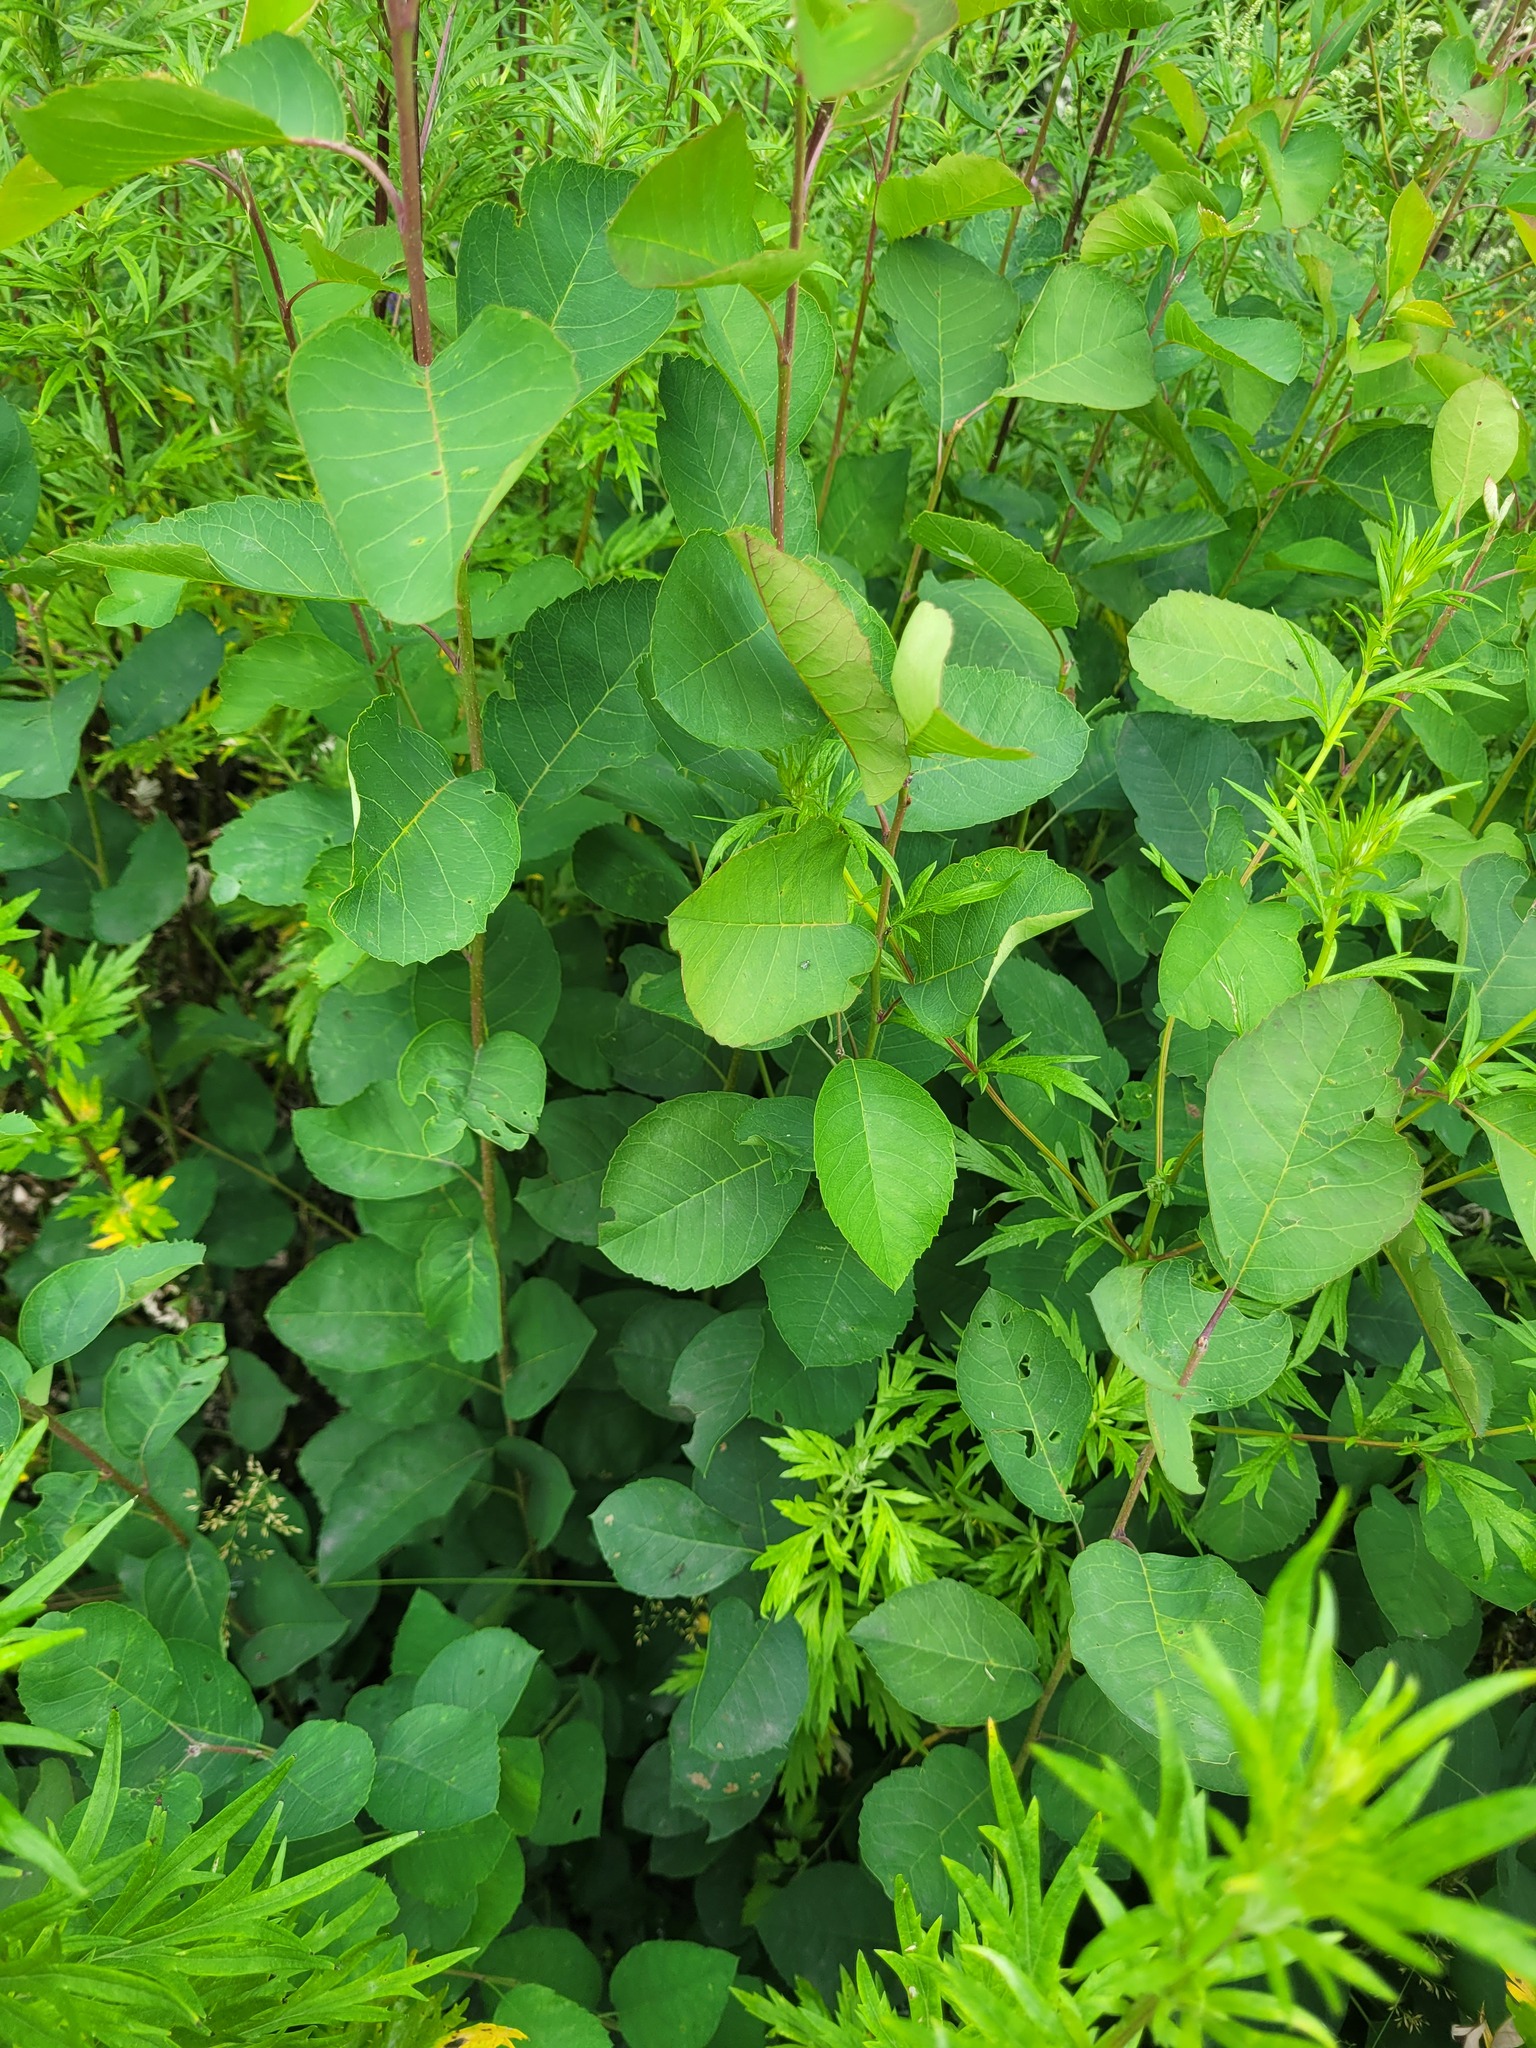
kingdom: Plantae
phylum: Tracheophyta
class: Magnoliopsida
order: Rosales
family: Rosaceae
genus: Amelanchier
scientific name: Amelanchier
